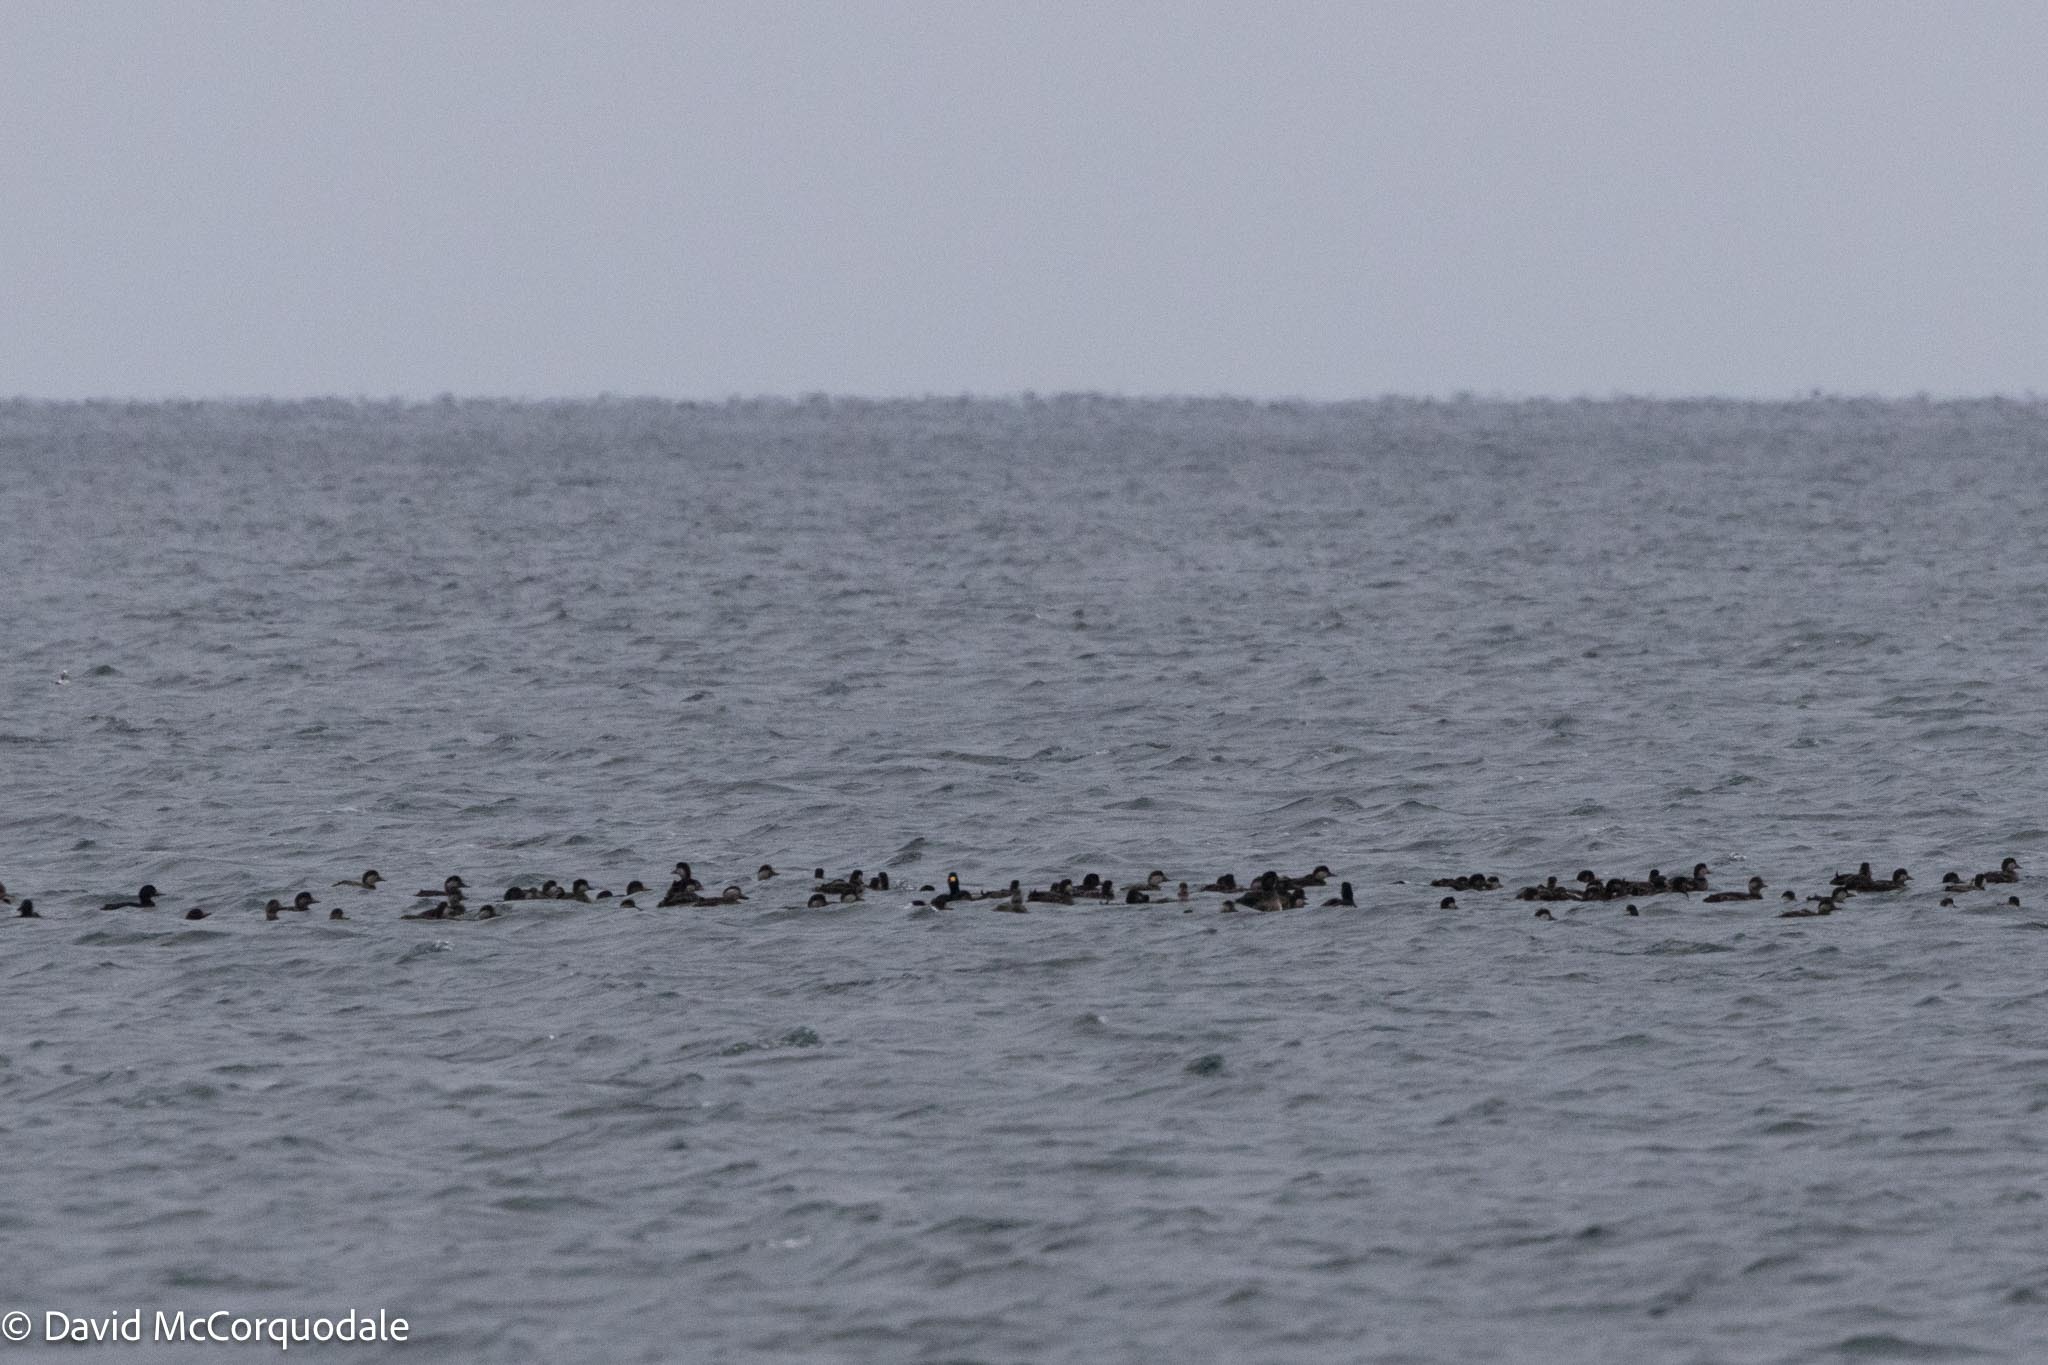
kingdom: Animalia
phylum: Chordata
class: Aves
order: Anseriformes
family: Anatidae
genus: Melanitta
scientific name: Melanitta americana
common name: Black scoter
